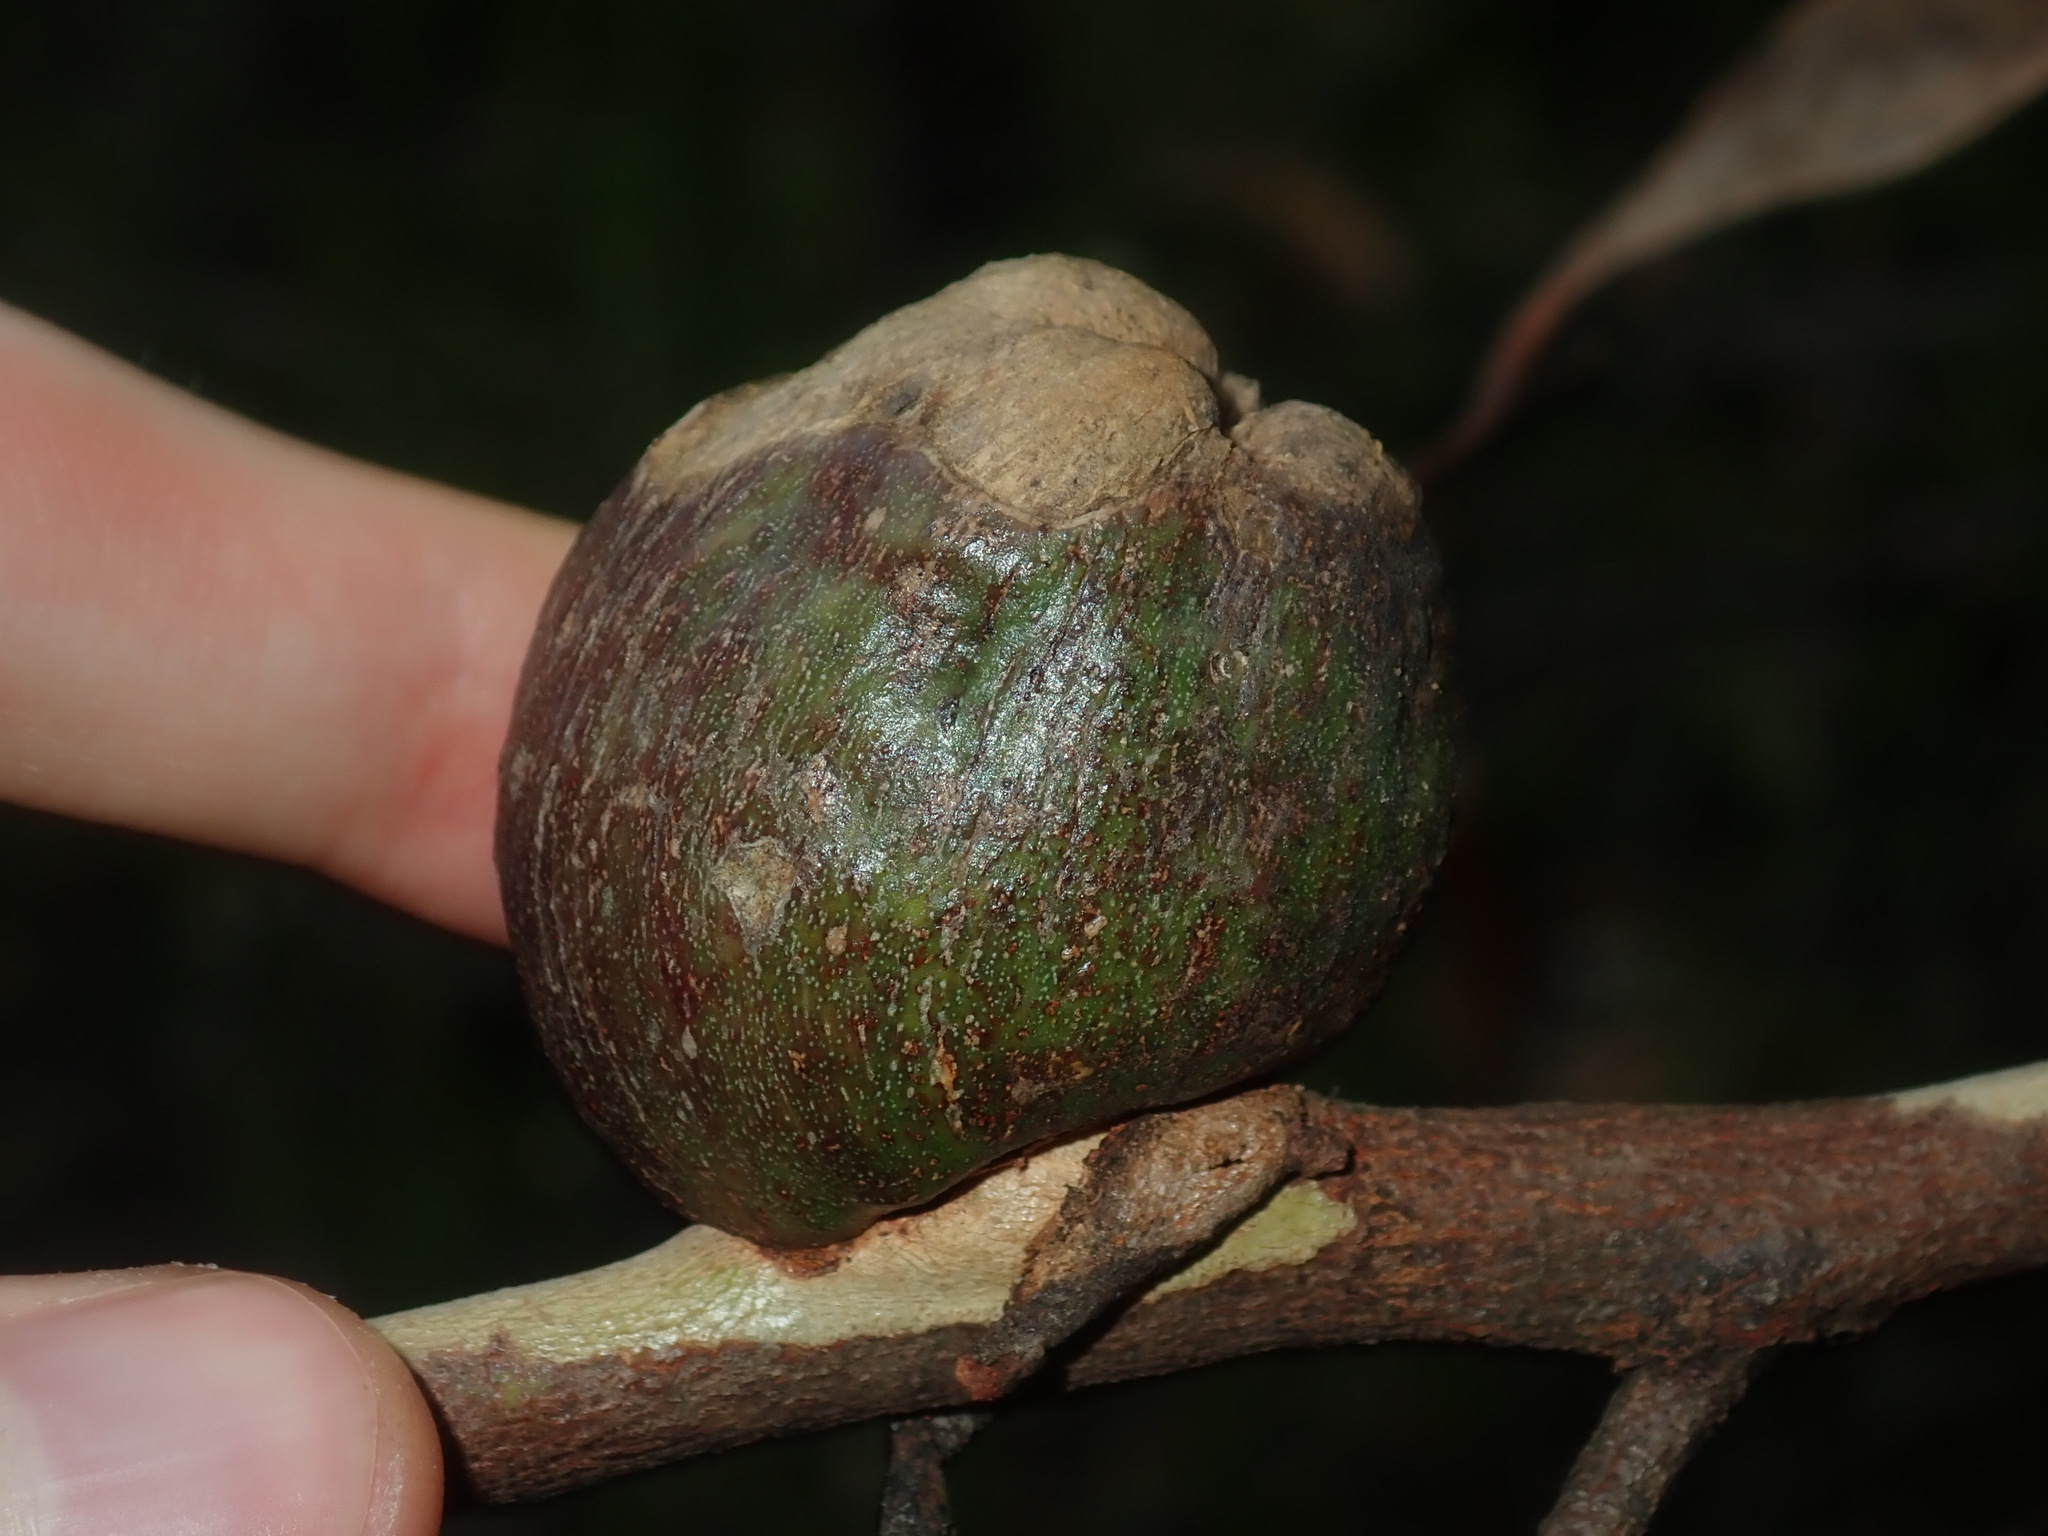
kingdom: Animalia
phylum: Arthropoda
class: Insecta
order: Hemiptera
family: Eriococcidae
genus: Apiomorpha
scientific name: Apiomorpha variabilis
